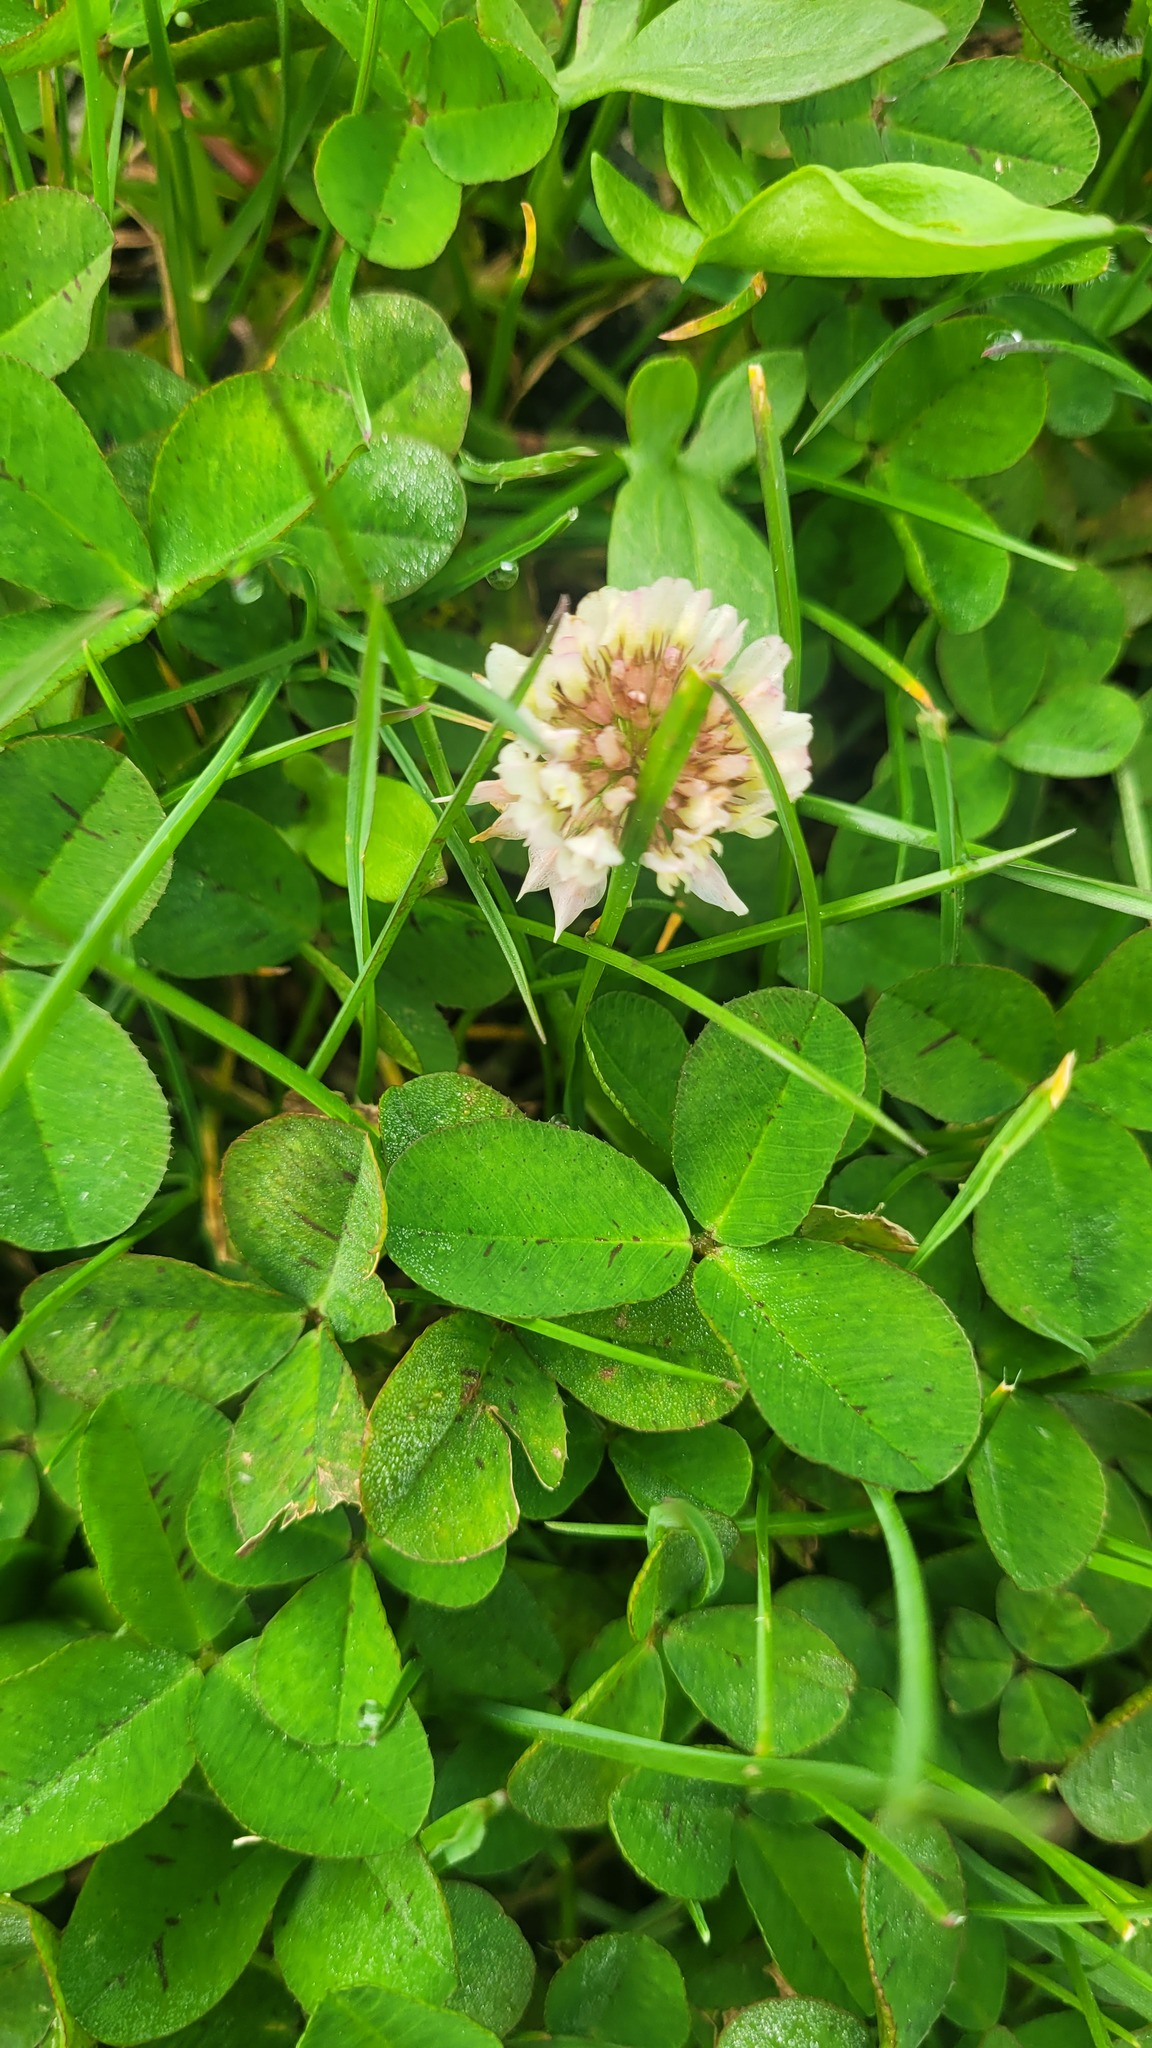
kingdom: Plantae
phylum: Tracheophyta
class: Magnoliopsida
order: Fabales
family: Fabaceae
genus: Trifolium
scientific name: Trifolium repens
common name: White clover
